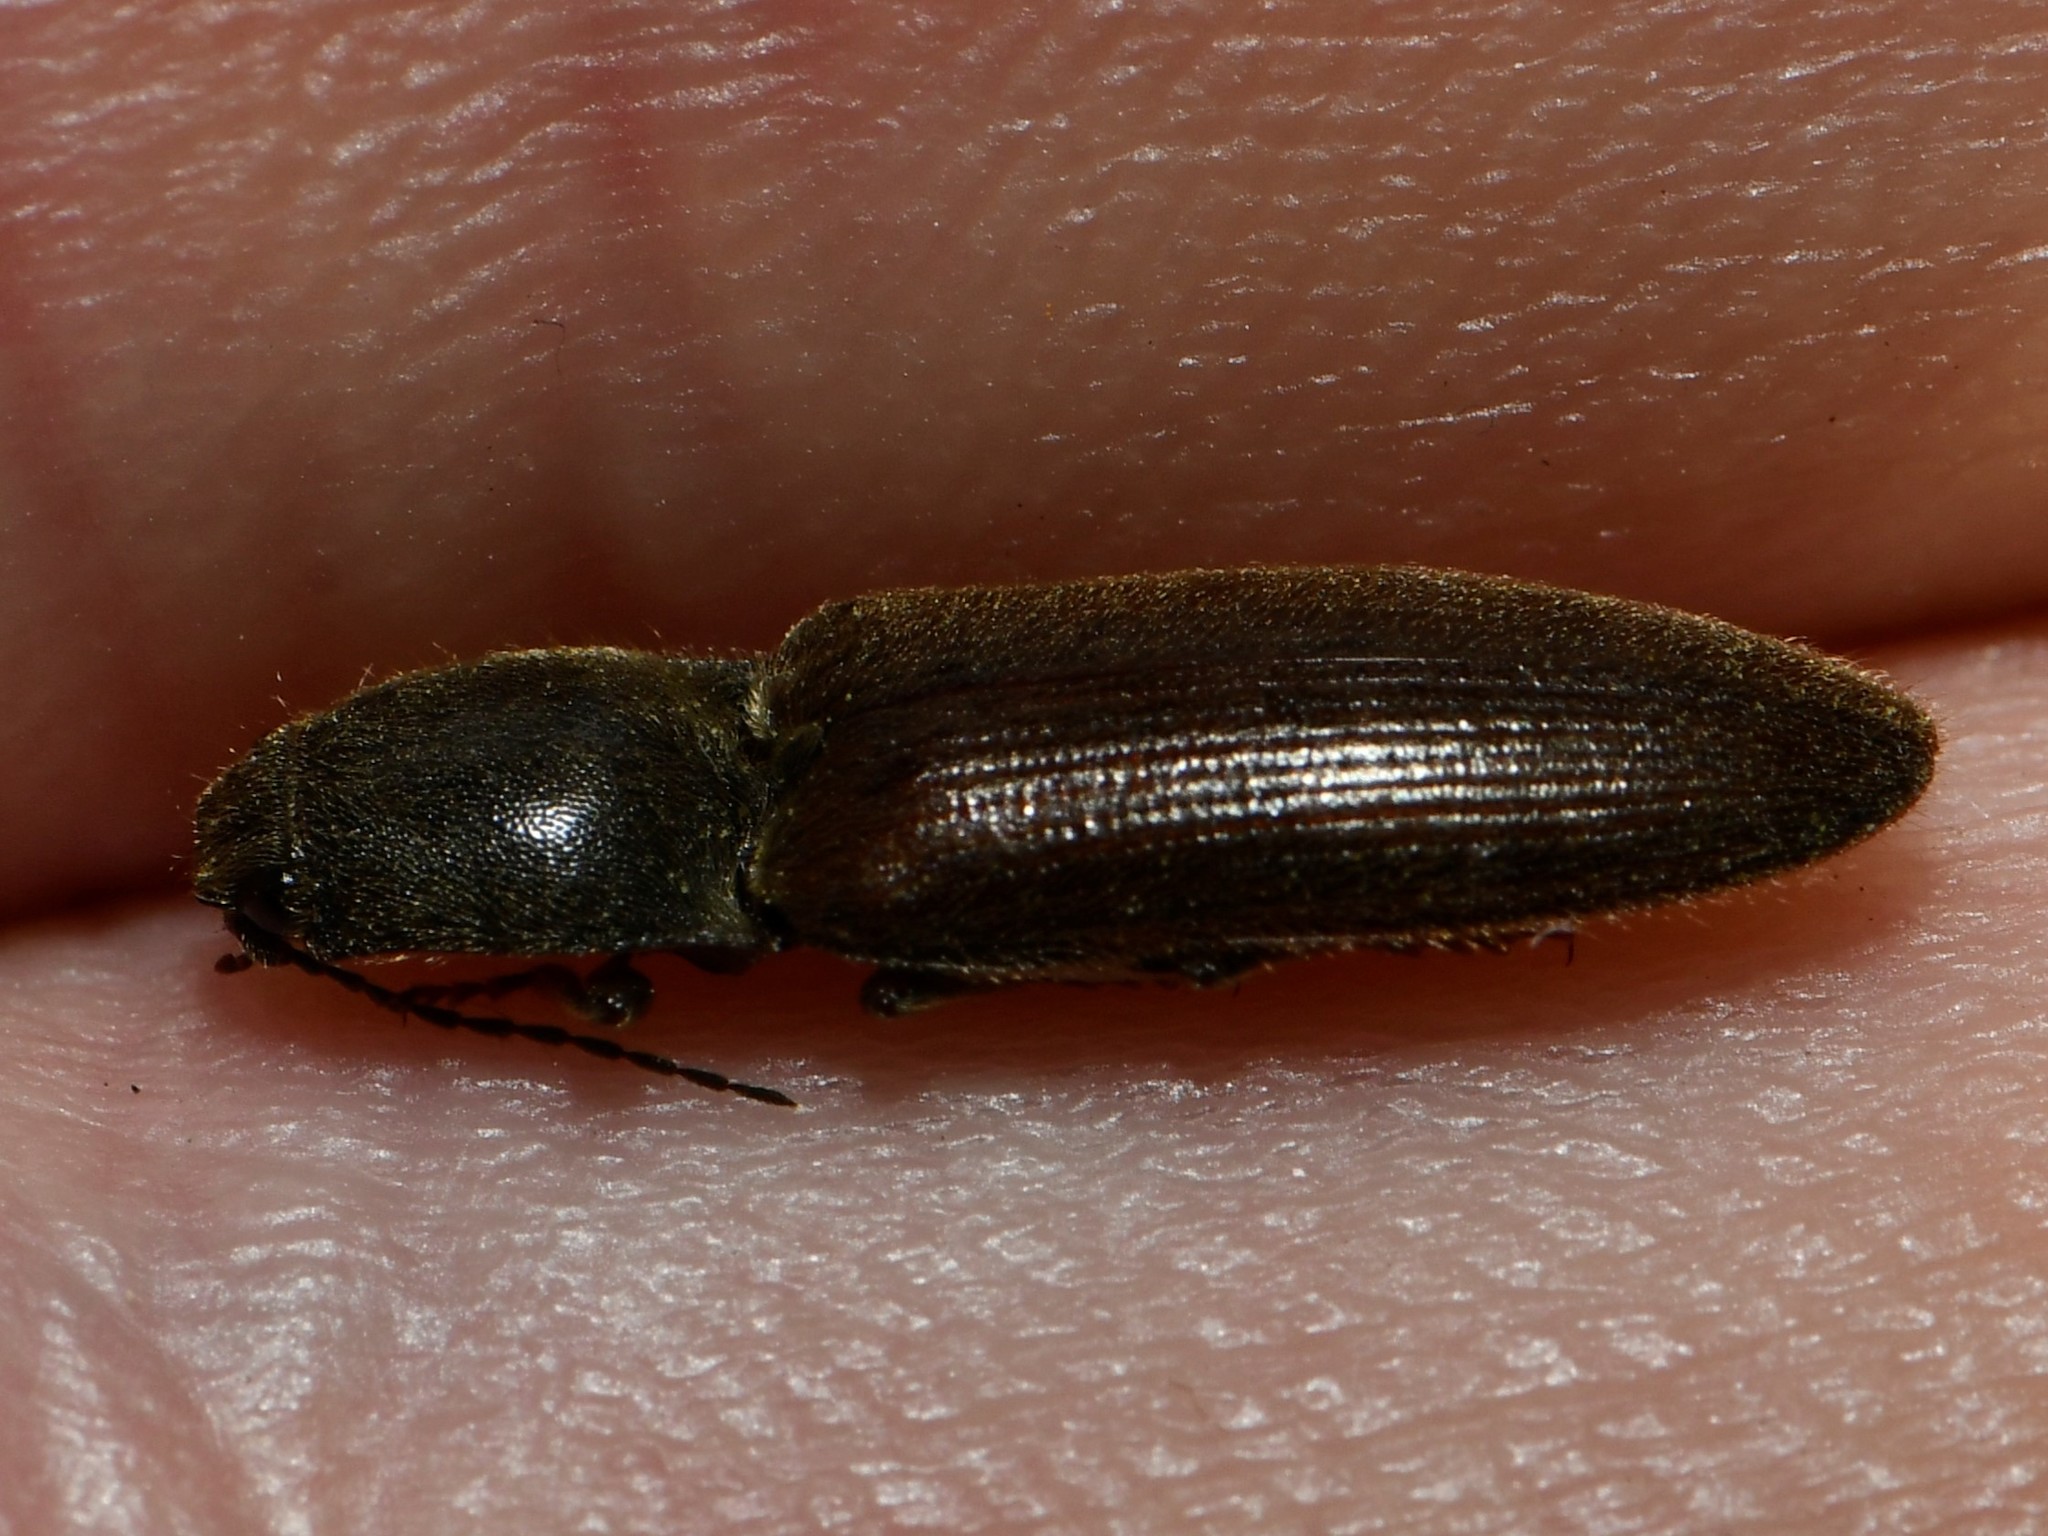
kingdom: Animalia
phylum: Arthropoda
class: Insecta
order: Coleoptera
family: Elateridae
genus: Athous
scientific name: Athous haemorrhoidalis
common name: Red-brown click beetle
